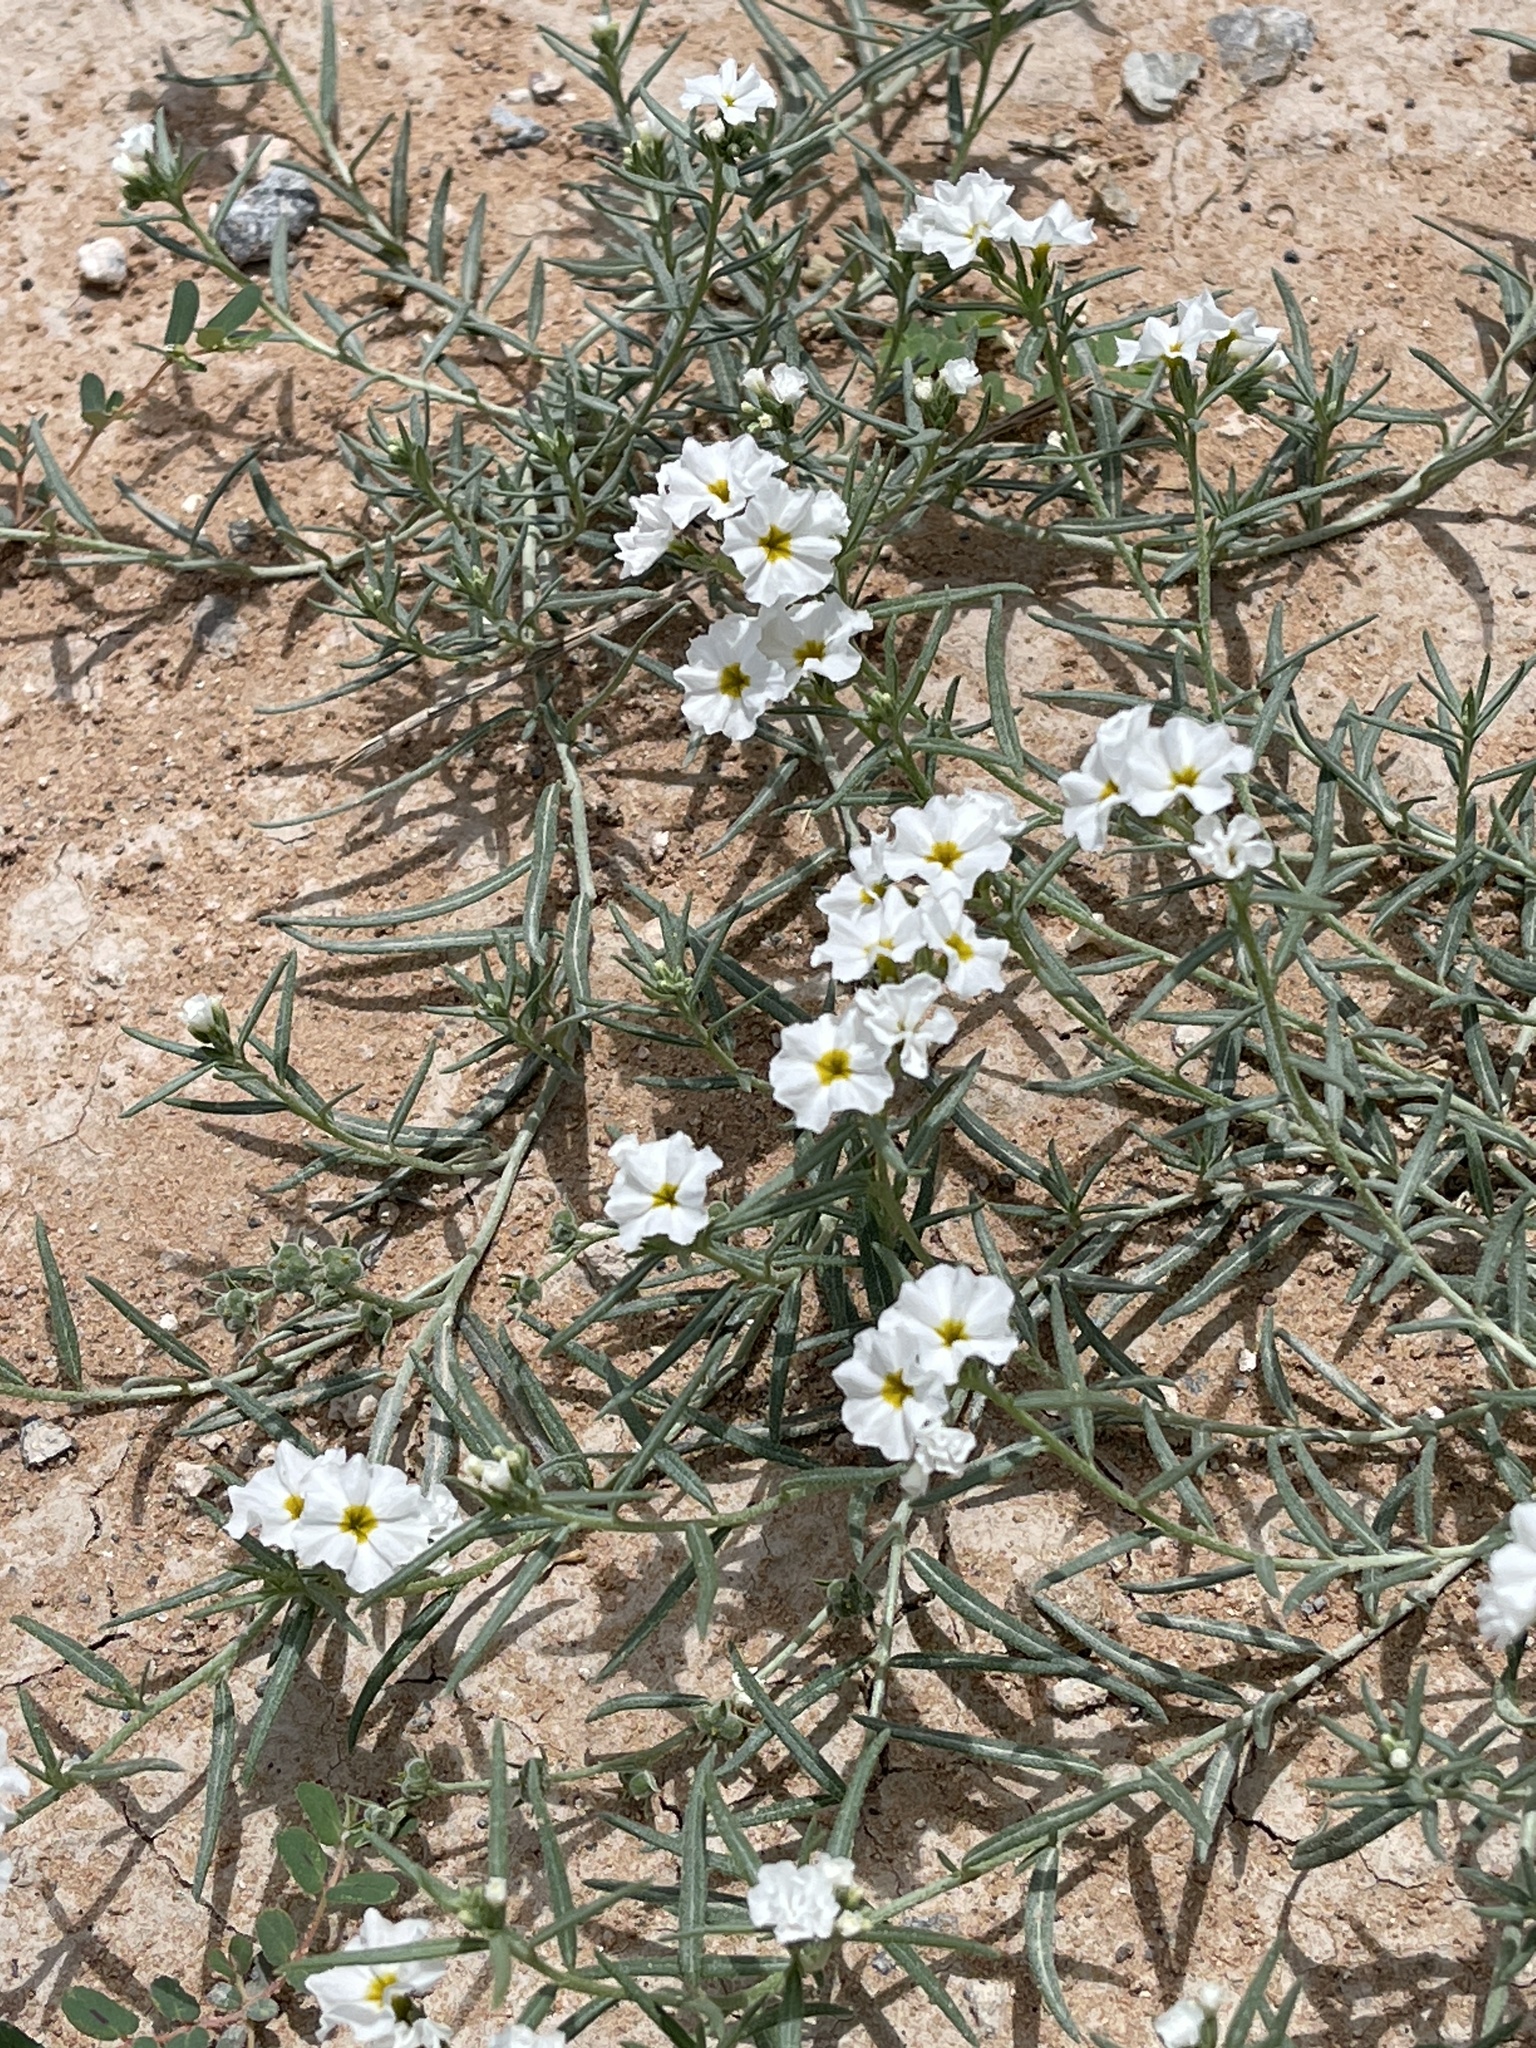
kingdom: Plantae
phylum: Tracheophyta
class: Magnoliopsida
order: Boraginales
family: Heliotropiaceae
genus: Euploca
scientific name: Euploca greggii
